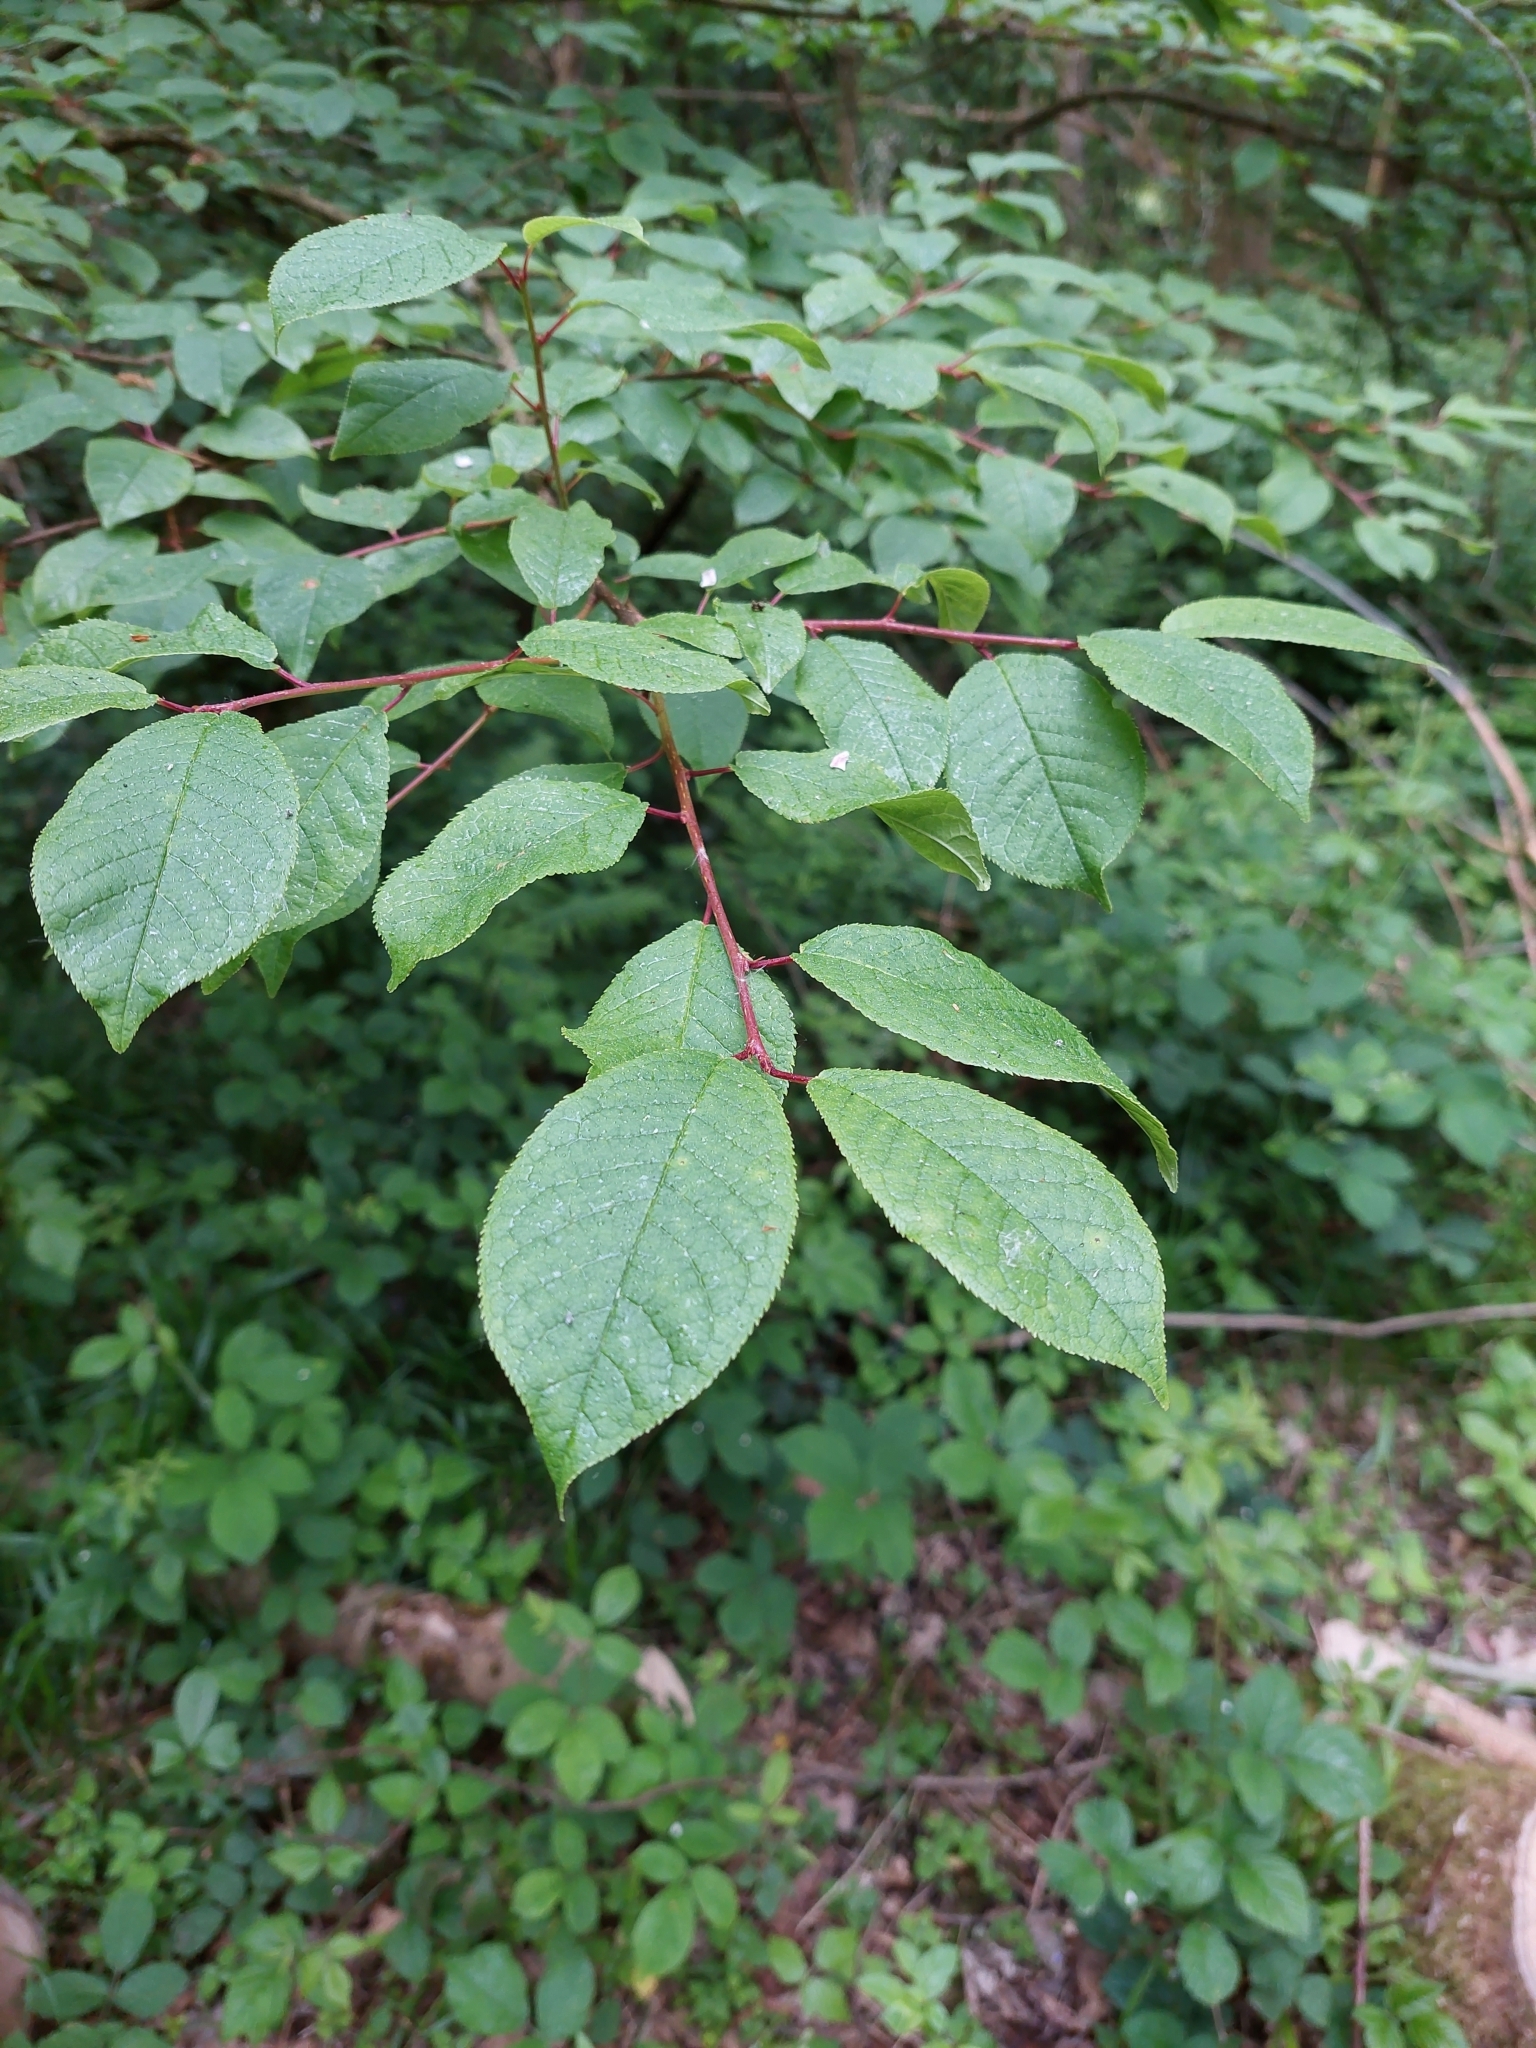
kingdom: Plantae
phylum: Tracheophyta
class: Magnoliopsida
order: Rosales
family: Rosaceae
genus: Prunus
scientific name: Prunus padus
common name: Bird cherry
